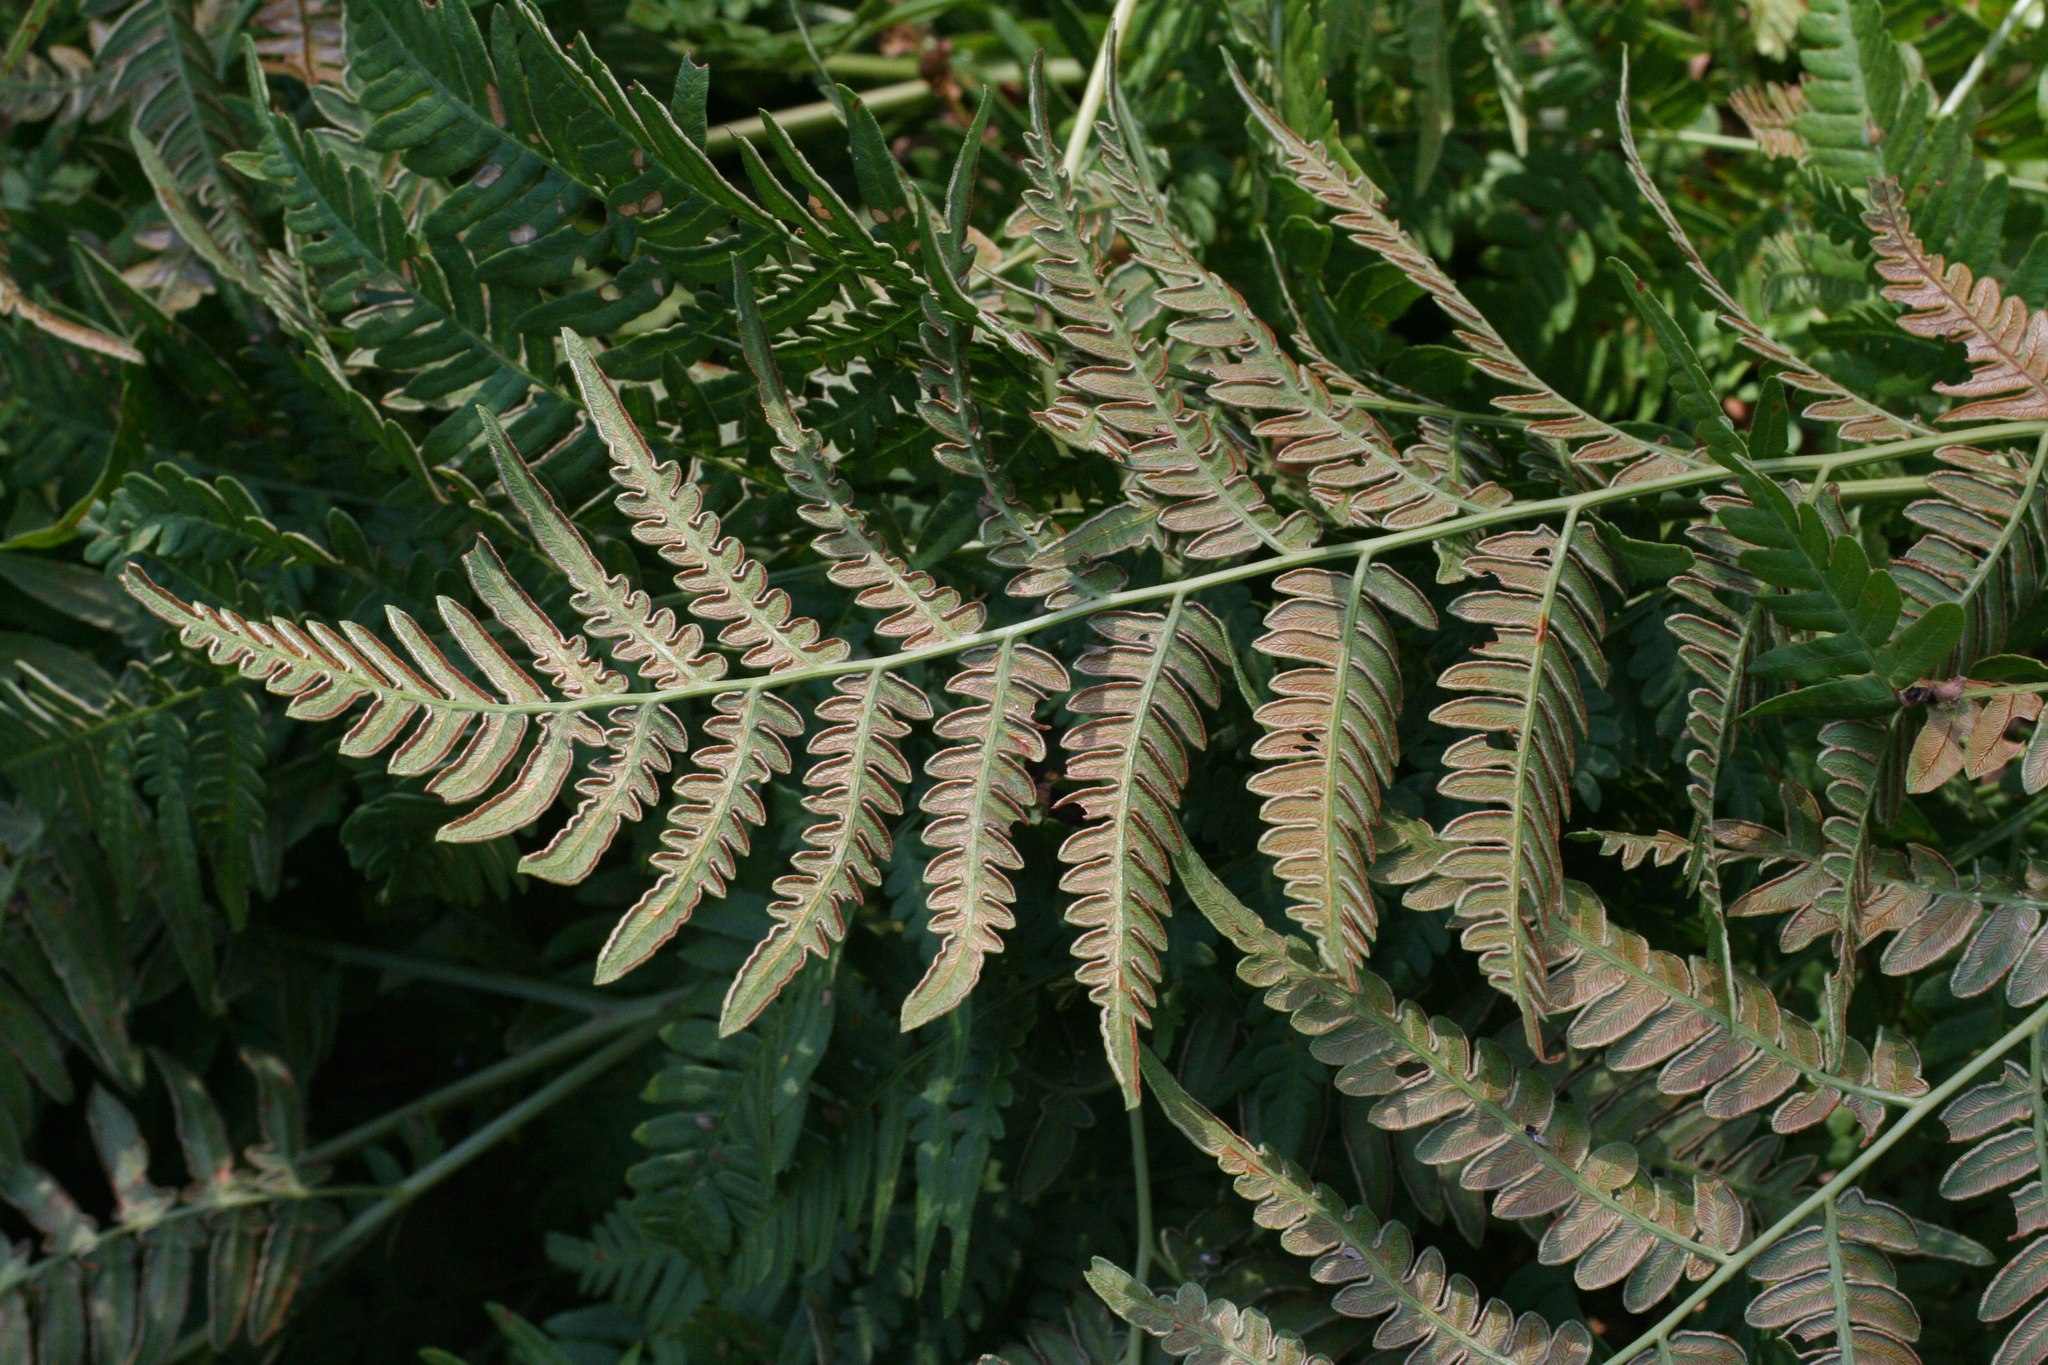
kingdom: Plantae
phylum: Tracheophyta
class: Polypodiopsida
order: Polypodiales
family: Dennstaedtiaceae
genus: Pteridium
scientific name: Pteridium aquilinum
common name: Bracken
